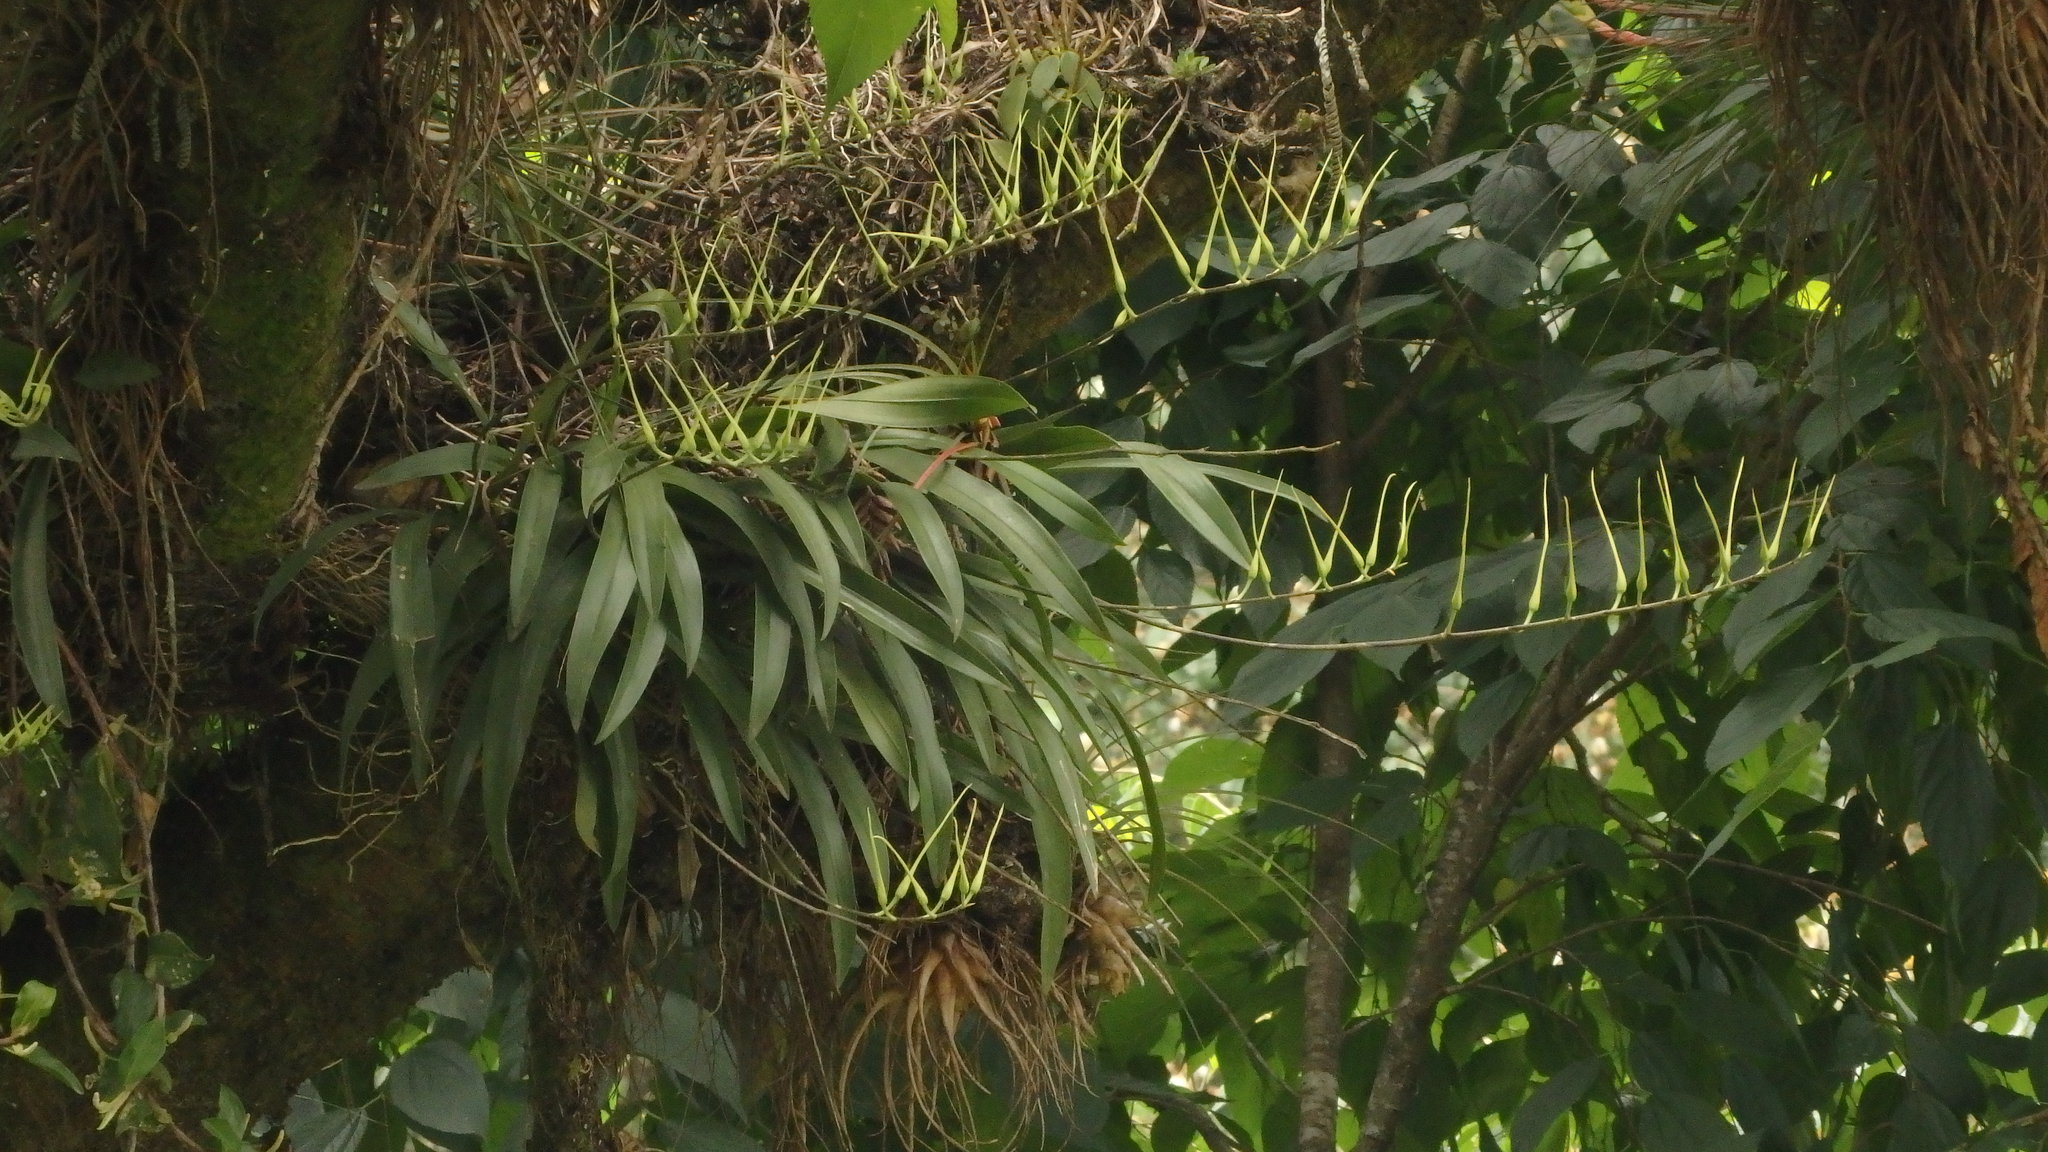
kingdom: Plantae
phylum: Tracheophyta
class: Liliopsida
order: Asparagales
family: Orchidaceae
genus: Brassia
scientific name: Brassia verrucosa
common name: Warty brassia
